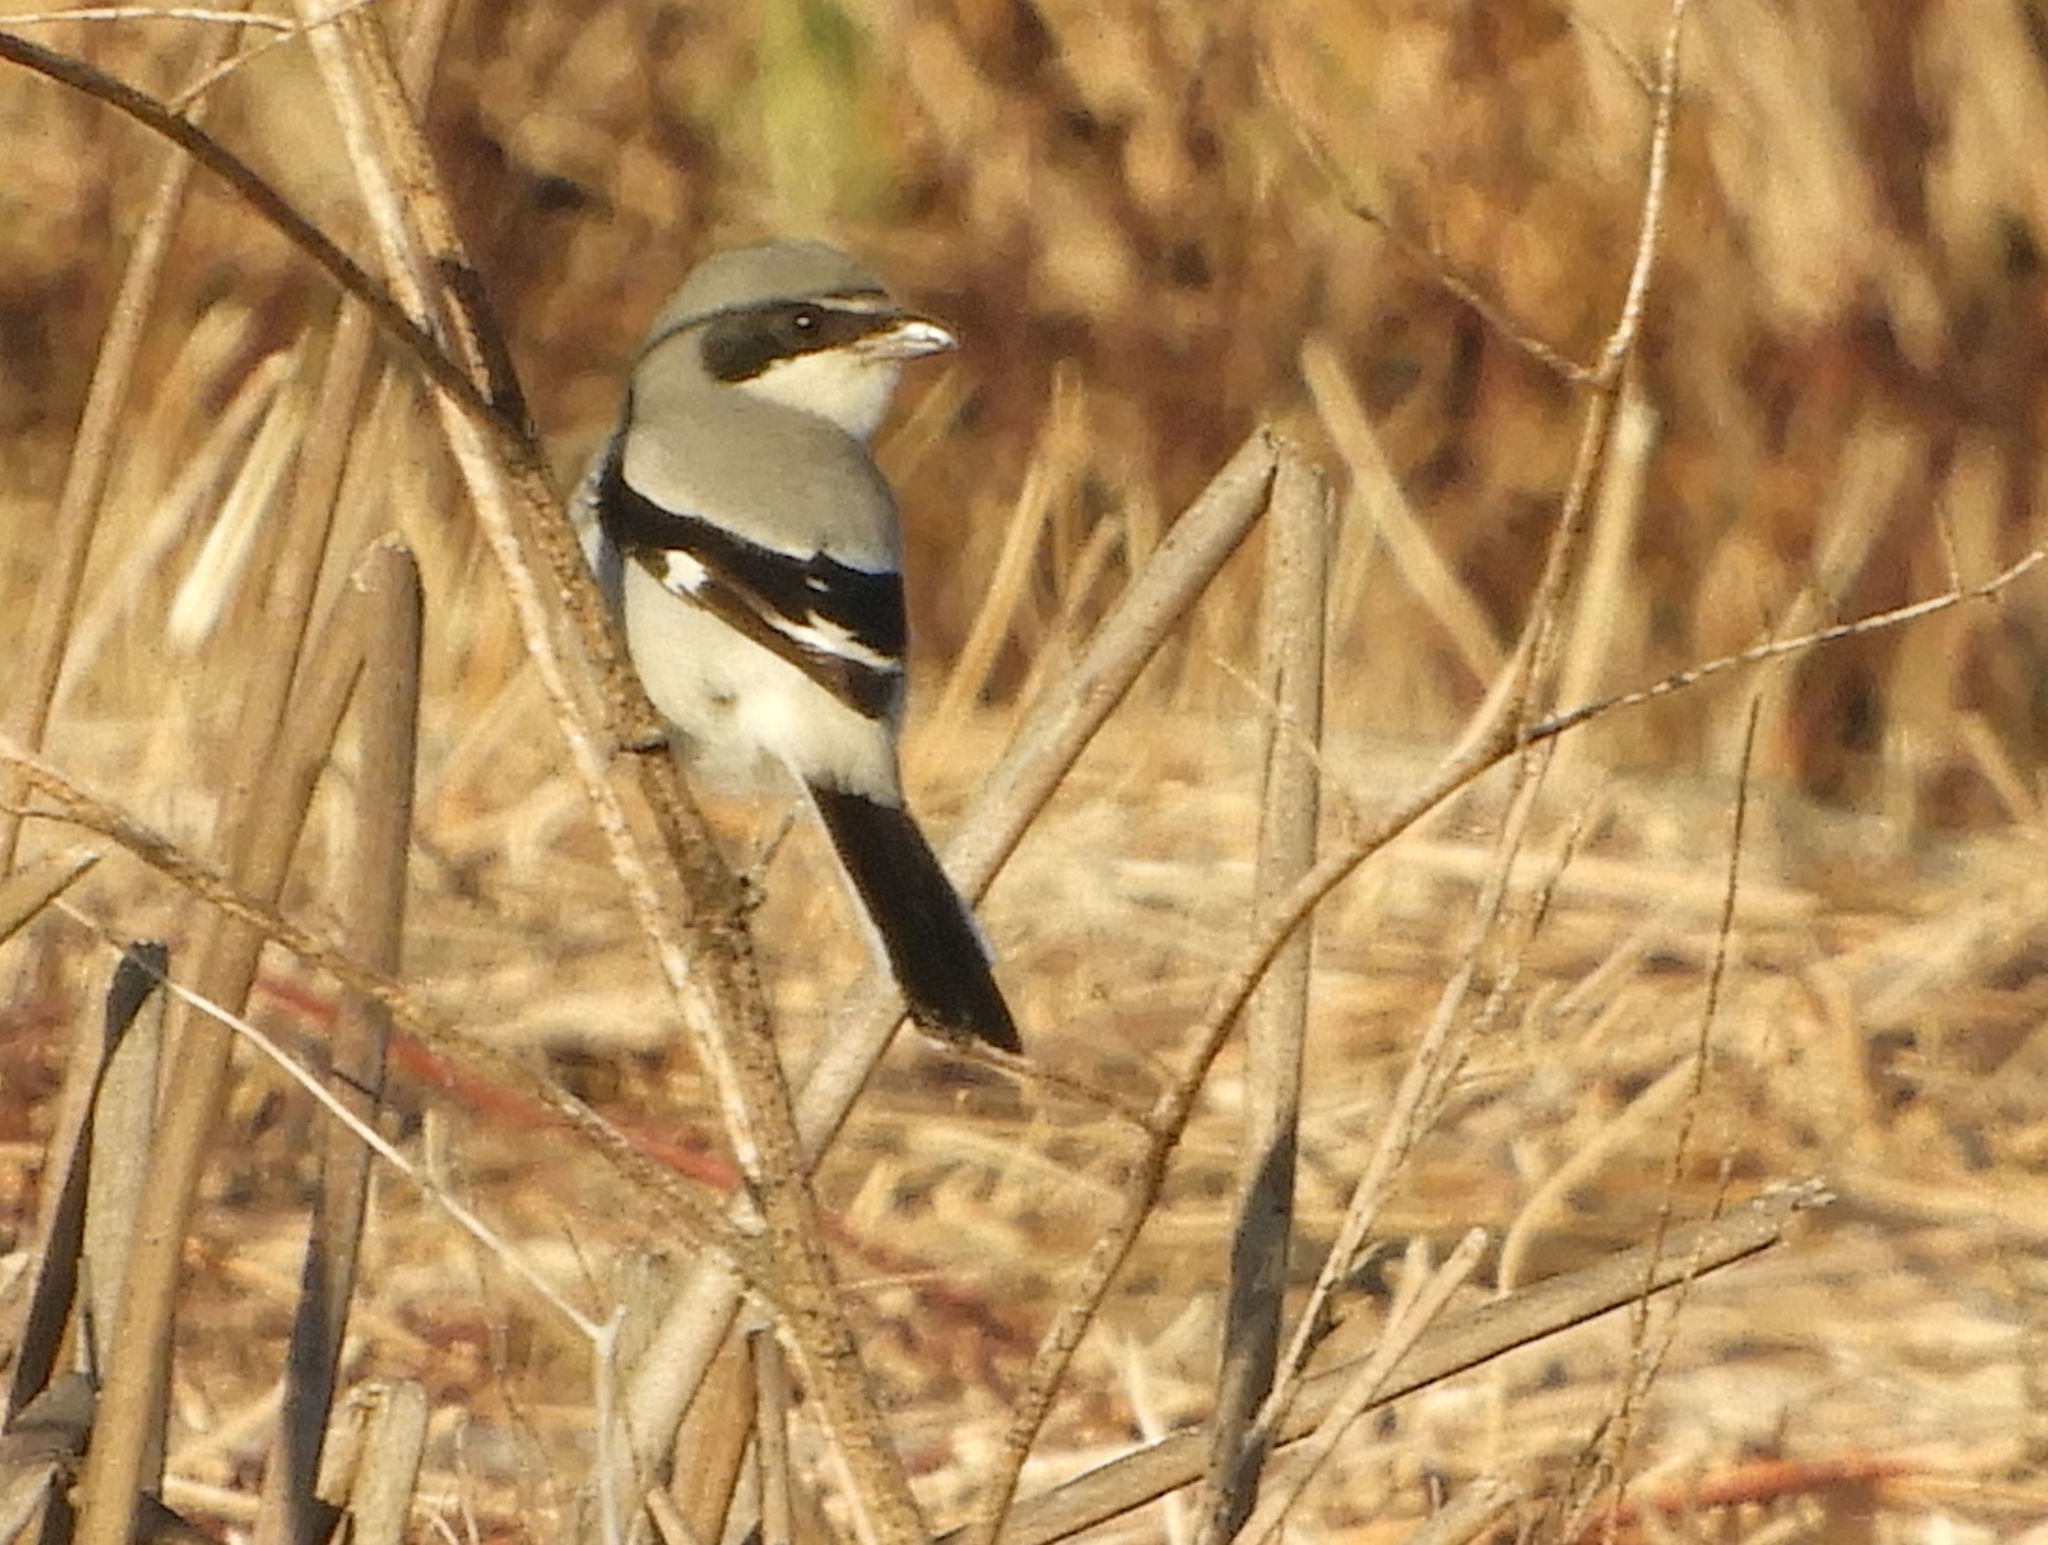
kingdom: Animalia
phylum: Chordata
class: Aves
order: Passeriformes
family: Laniidae
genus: Lanius
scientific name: Lanius ludovicianus
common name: Loggerhead shrike
